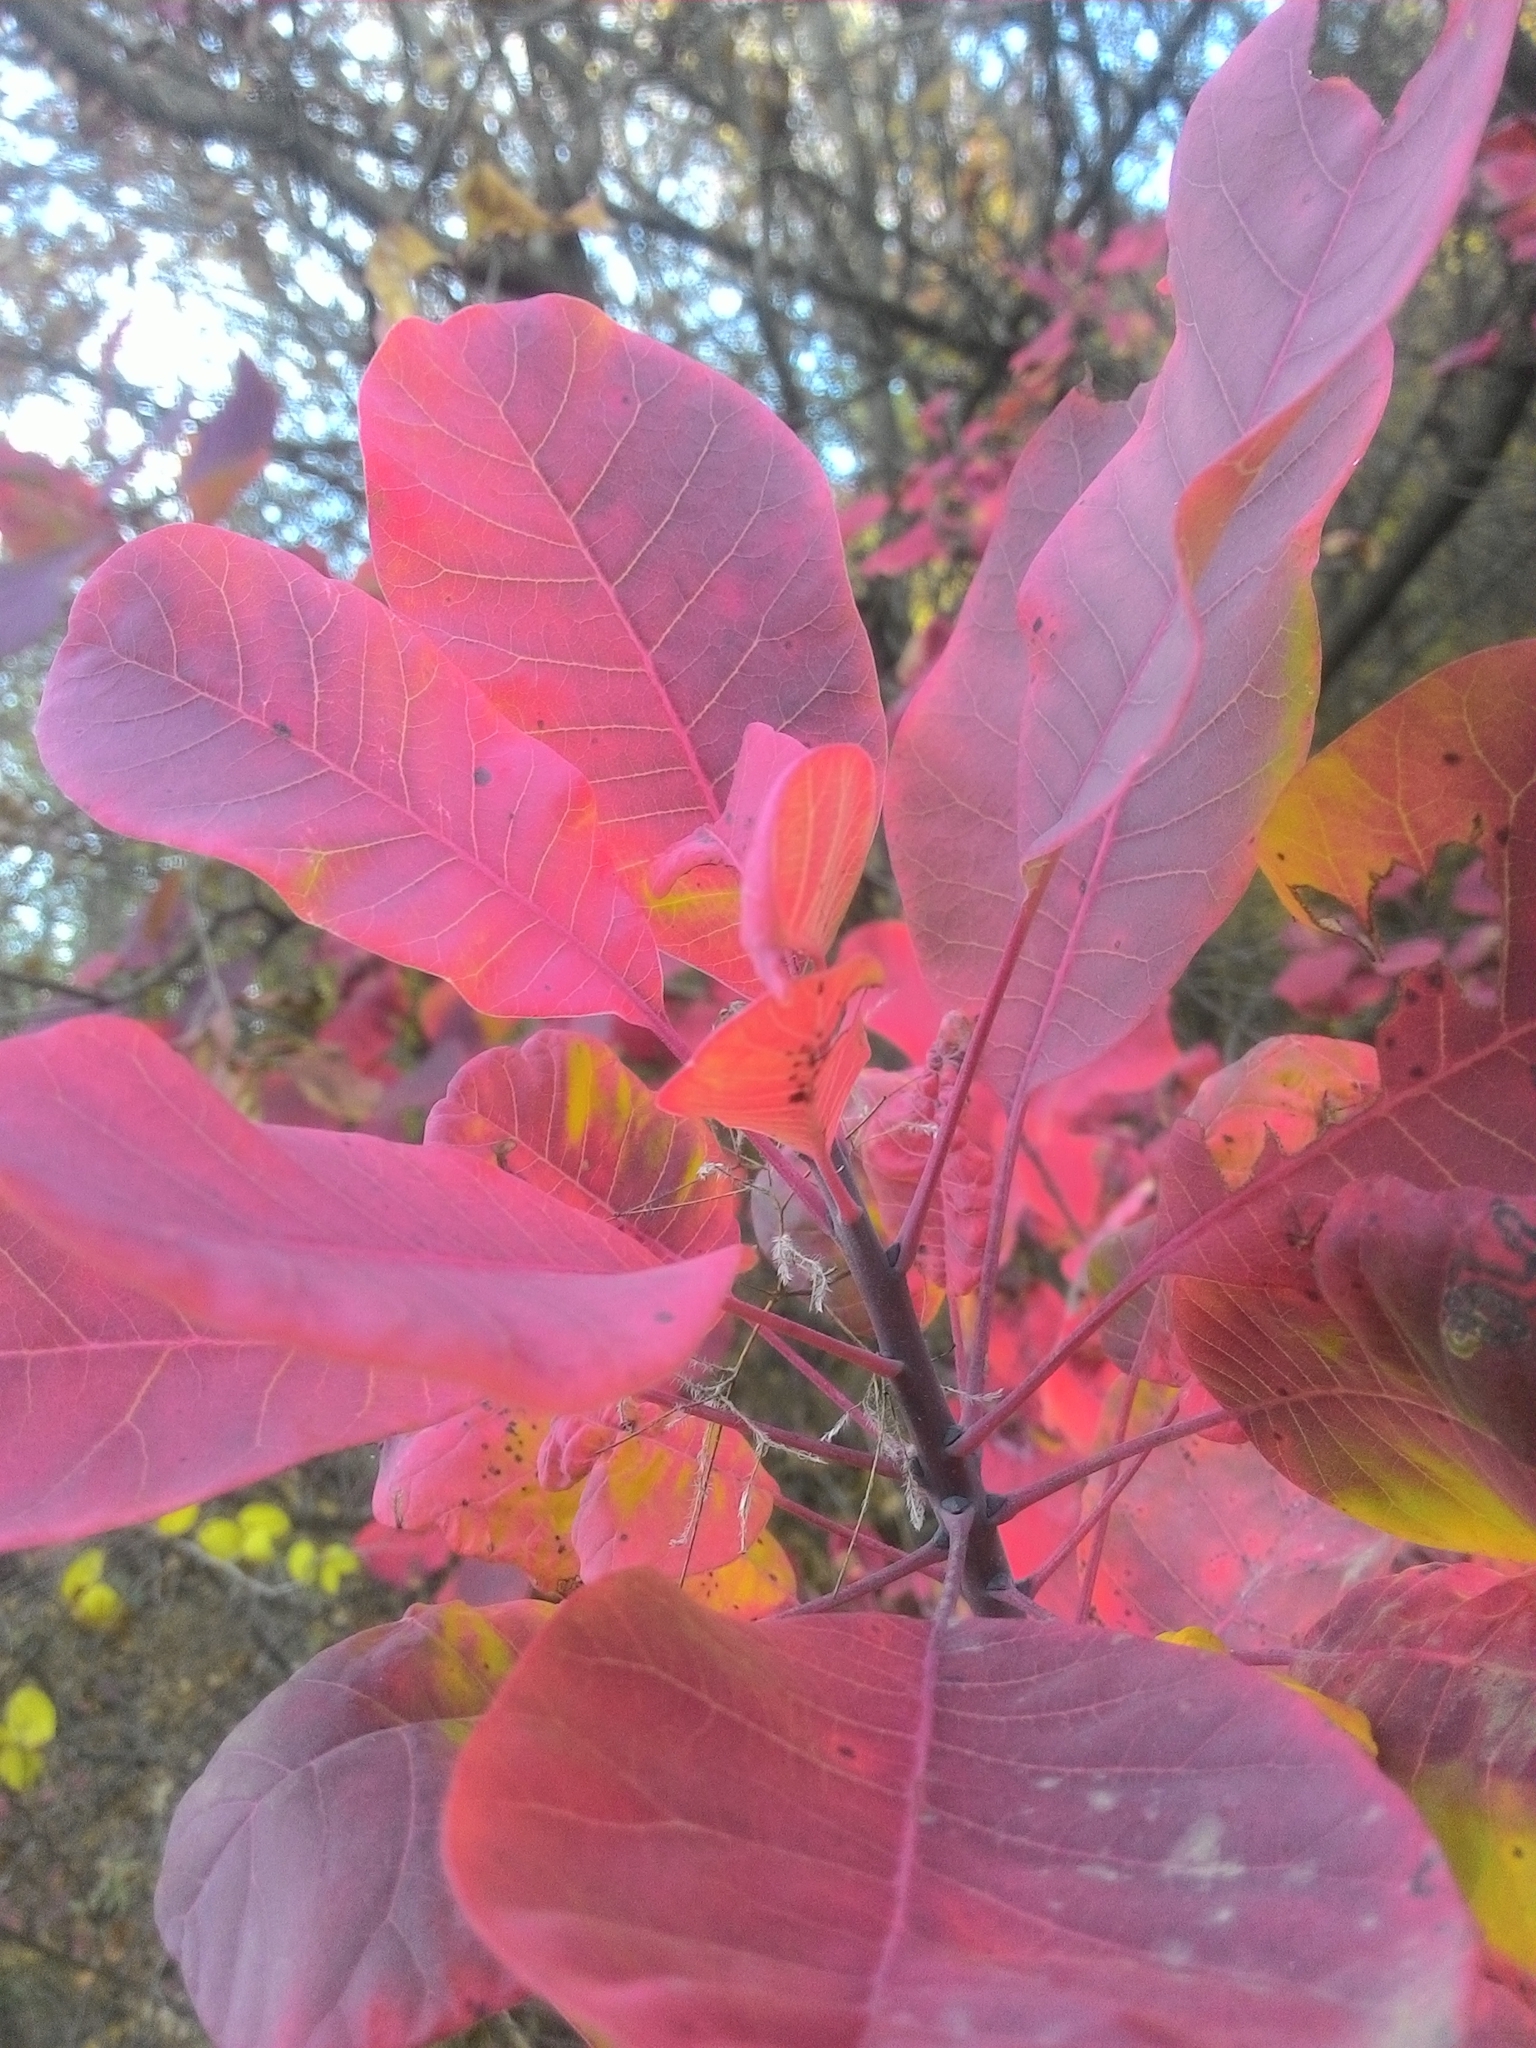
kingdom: Plantae
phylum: Tracheophyta
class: Magnoliopsida
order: Sapindales
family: Anacardiaceae
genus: Cotinus
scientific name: Cotinus coggygria
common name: Smoke-tree
